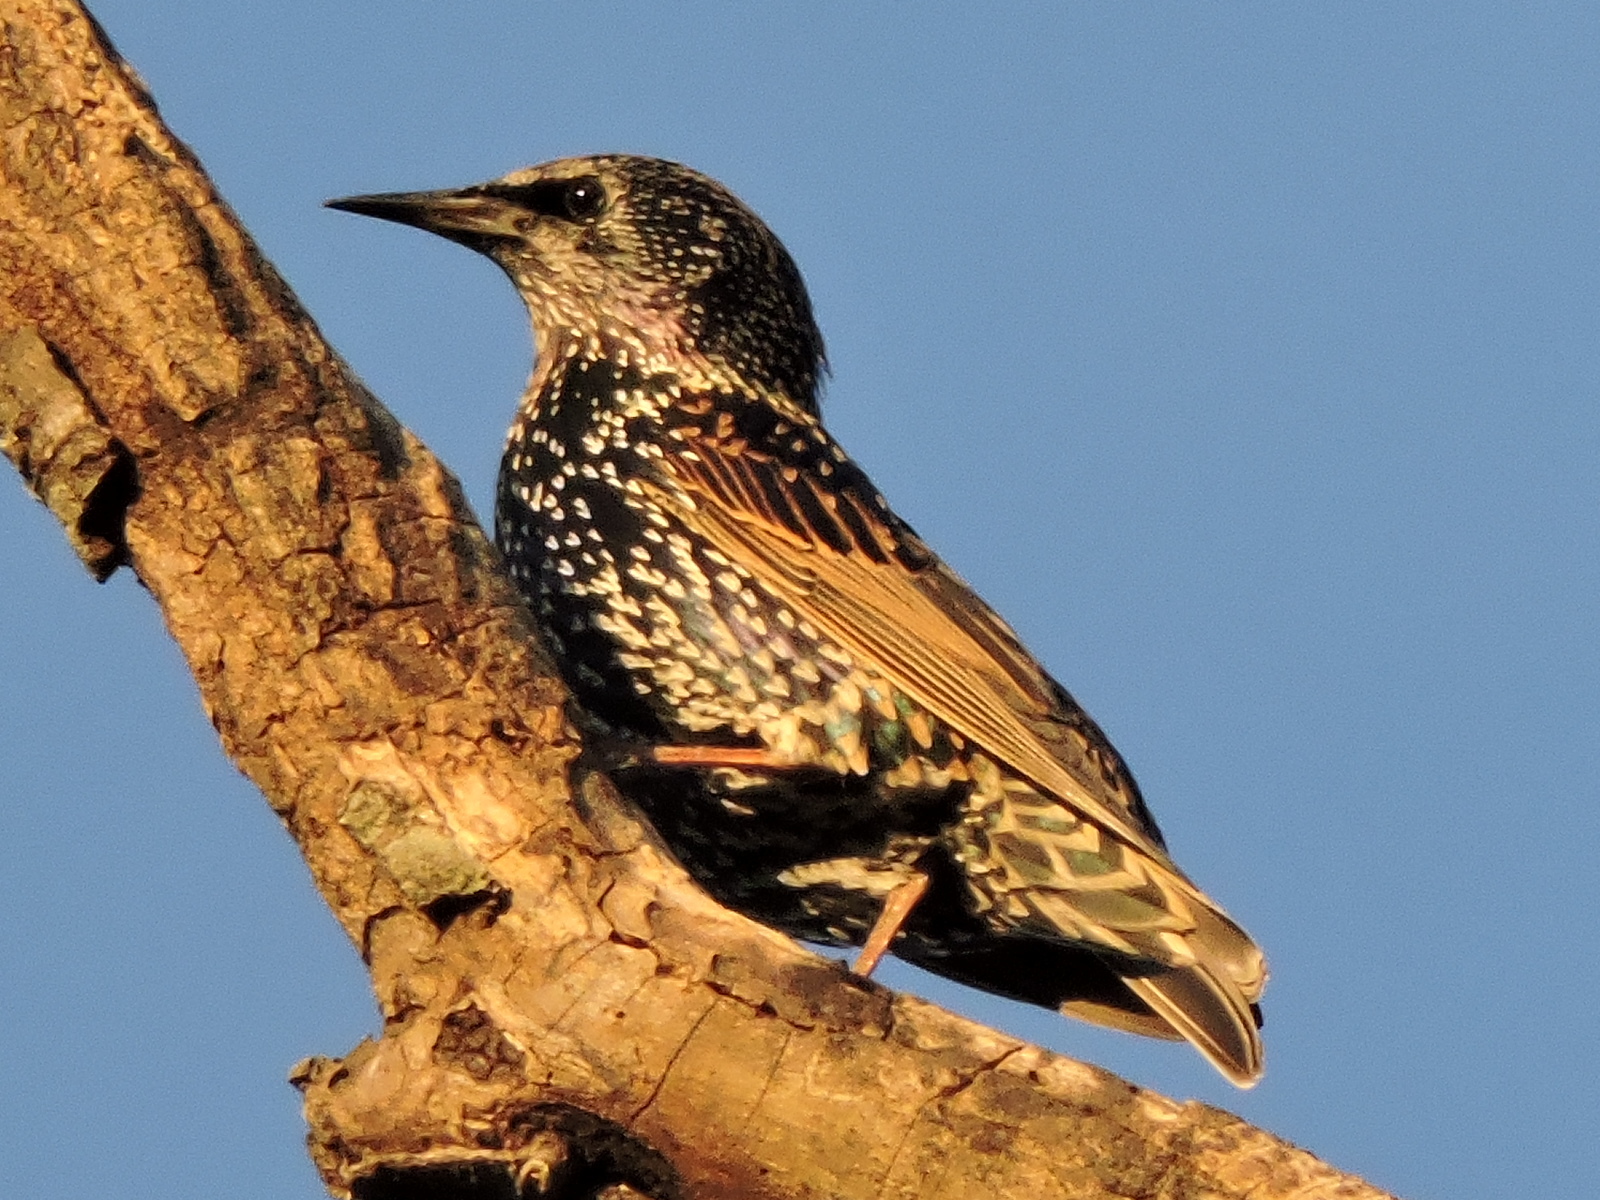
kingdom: Animalia
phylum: Chordata
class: Aves
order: Passeriformes
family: Sturnidae
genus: Sturnus
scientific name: Sturnus vulgaris
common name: Common starling
